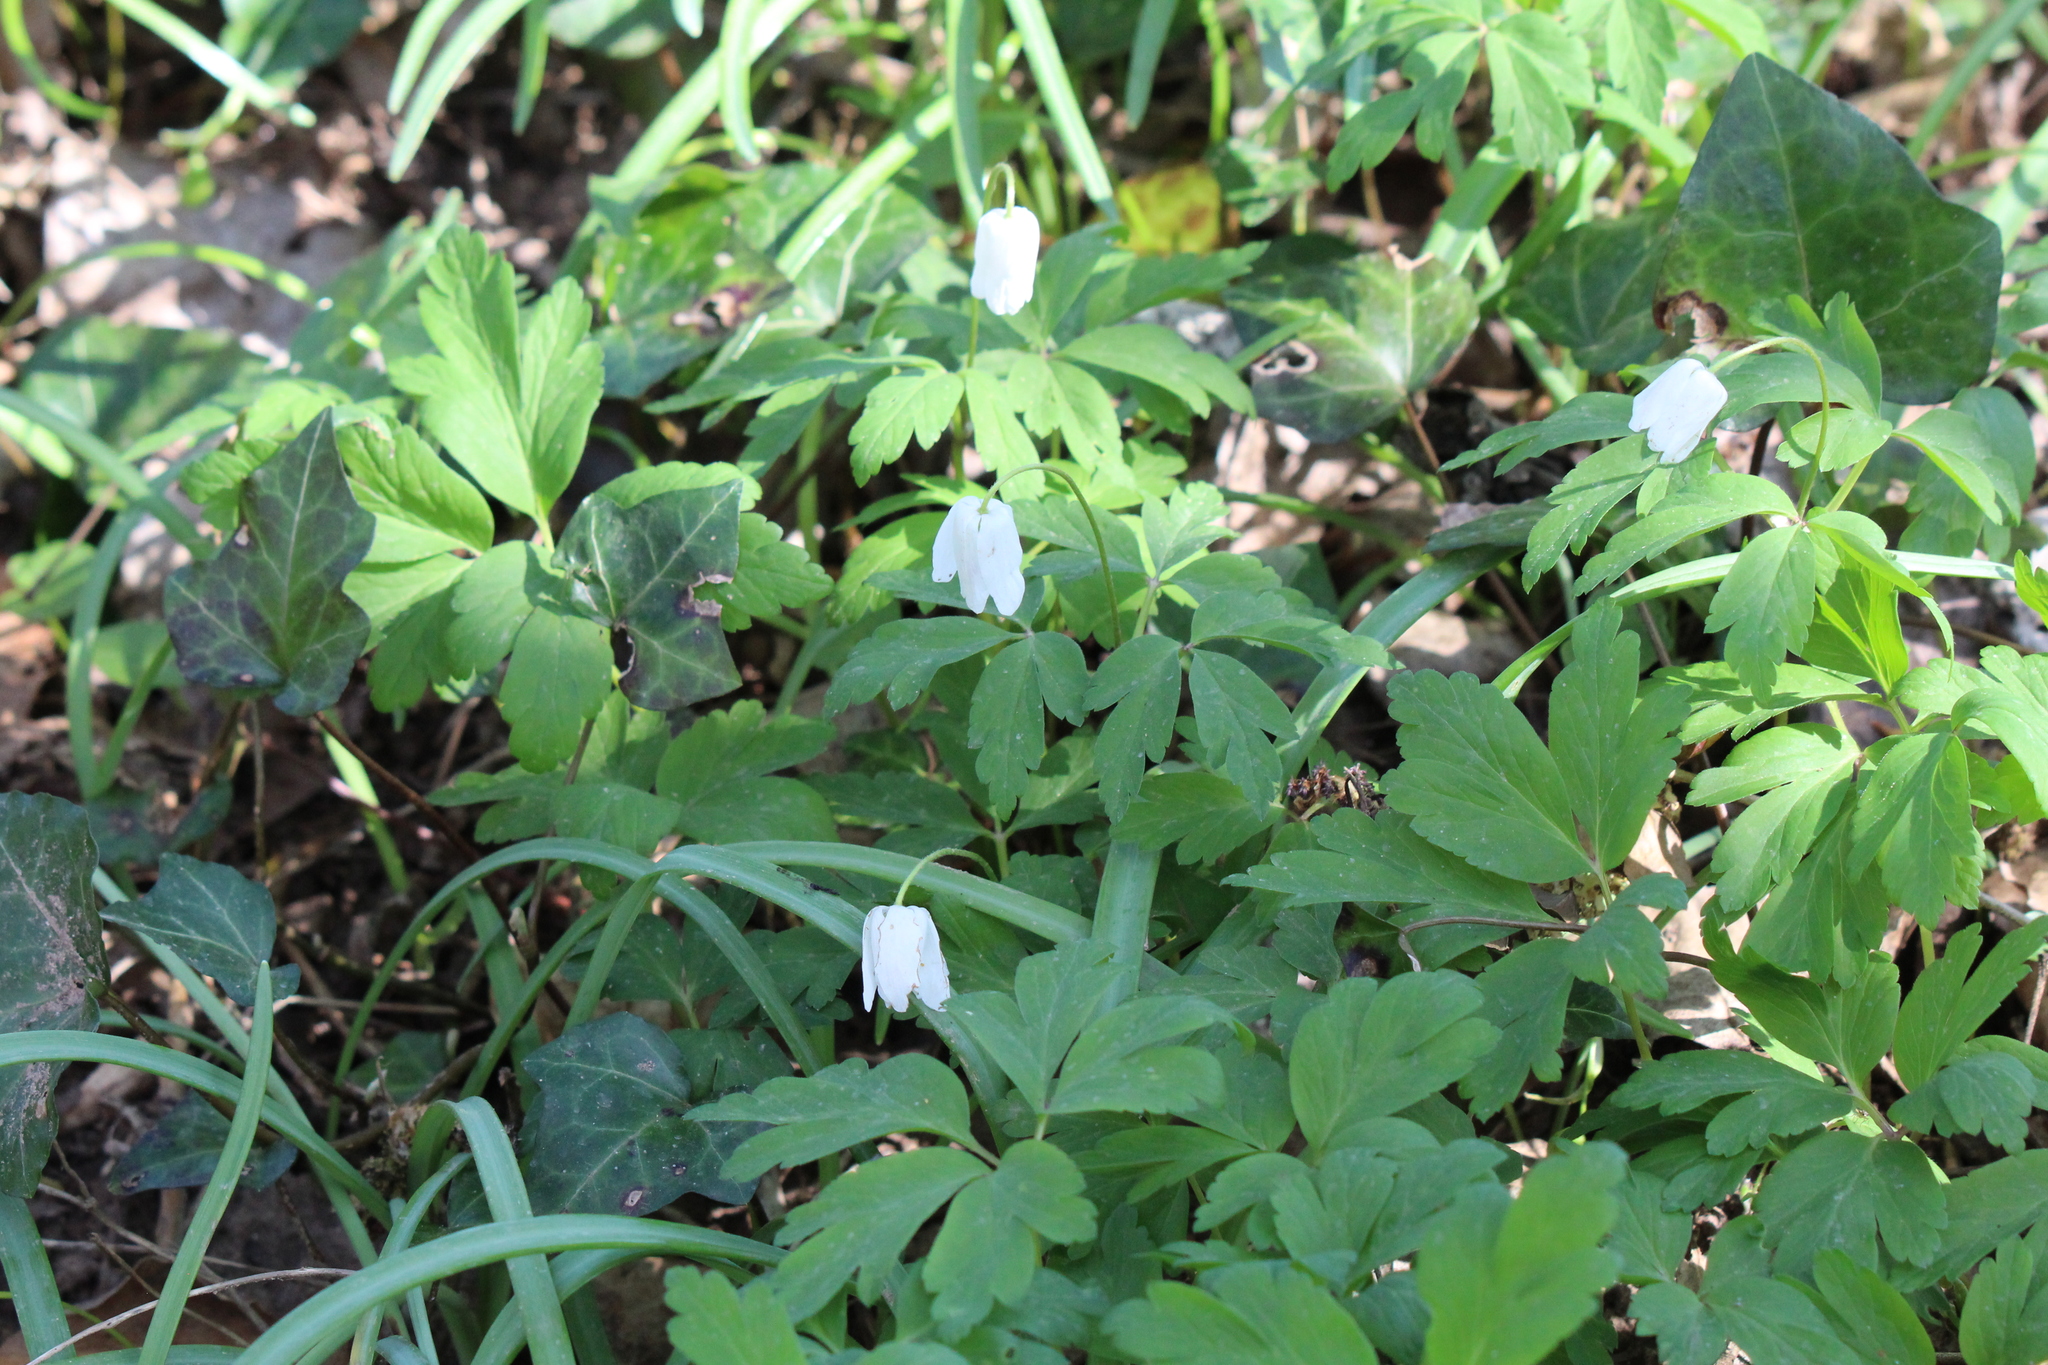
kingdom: Plantae
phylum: Tracheophyta
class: Magnoliopsida
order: Ranunculales
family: Ranunculaceae
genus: Anemone
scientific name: Anemone nemorosa
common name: Wood anemone
